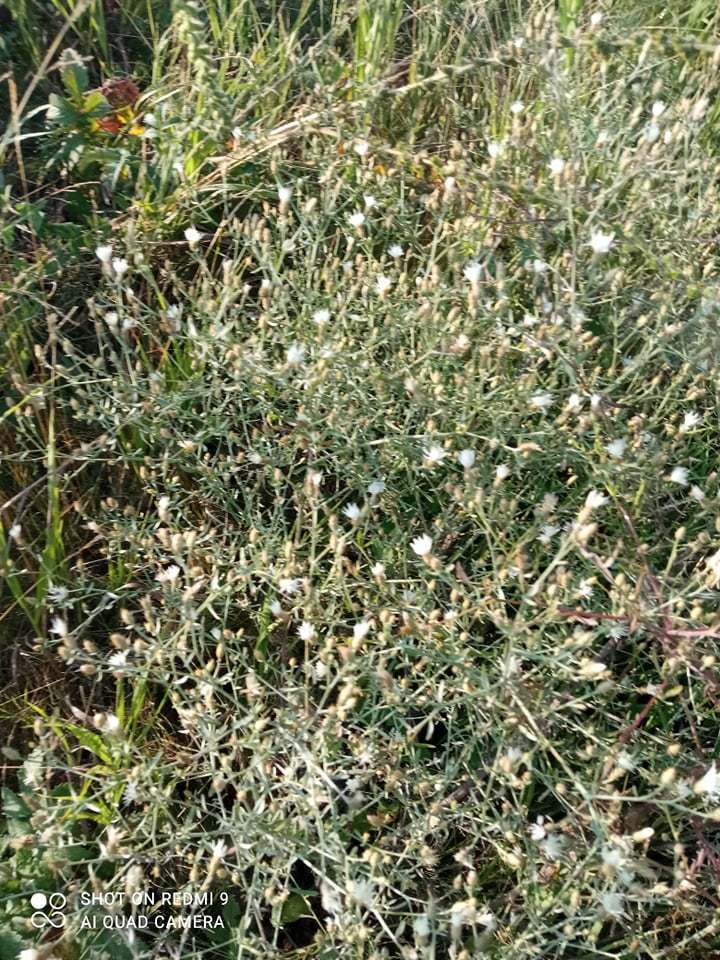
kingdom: Plantae
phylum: Tracheophyta
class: Magnoliopsida
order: Asterales
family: Asteraceae
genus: Centaurea
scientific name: Centaurea virgata
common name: Squarrose knapweed
